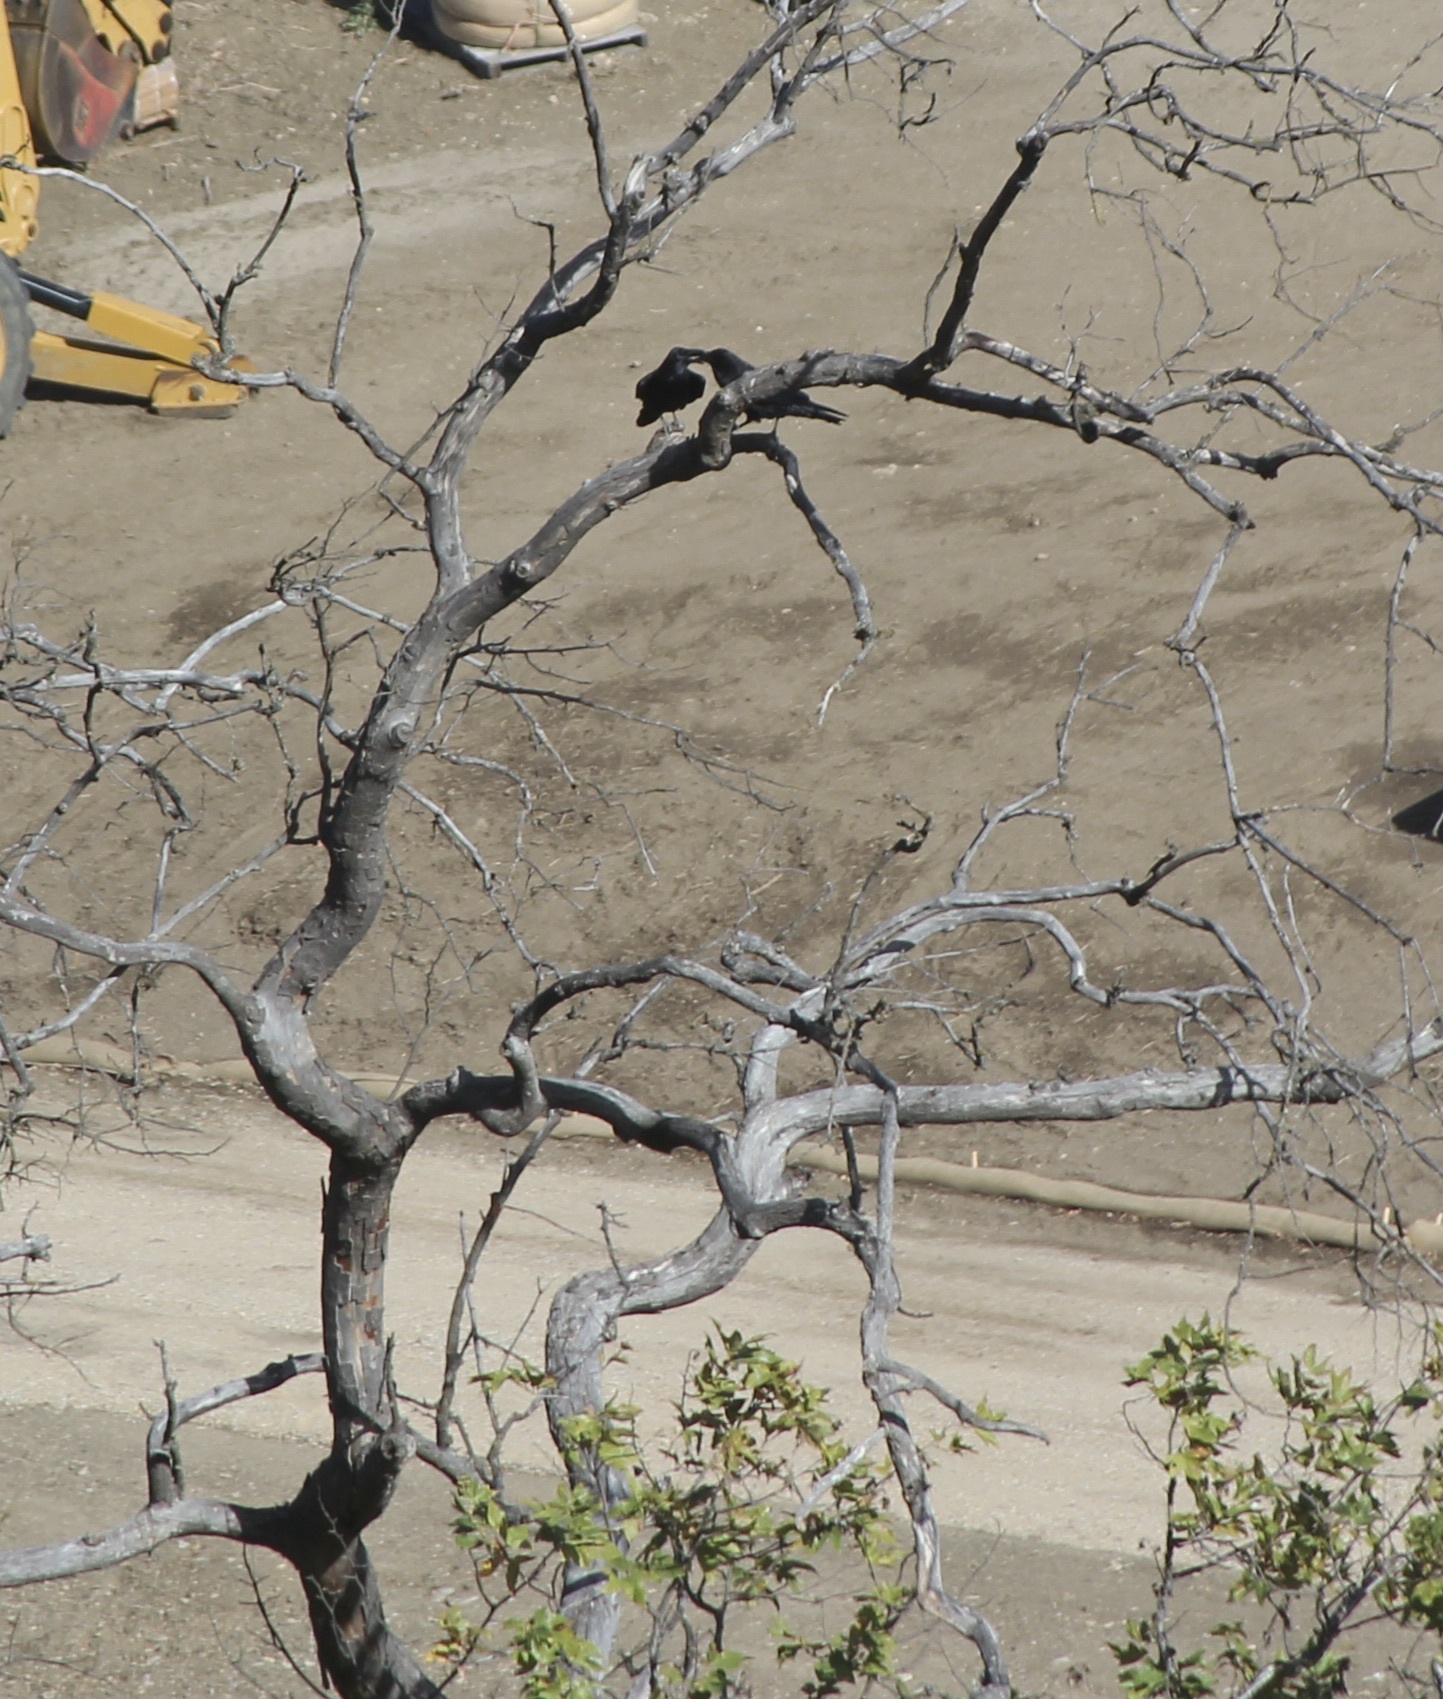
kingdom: Animalia
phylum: Chordata
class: Aves
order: Passeriformes
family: Corvidae
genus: Corvus
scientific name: Corvus corax
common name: Common raven
